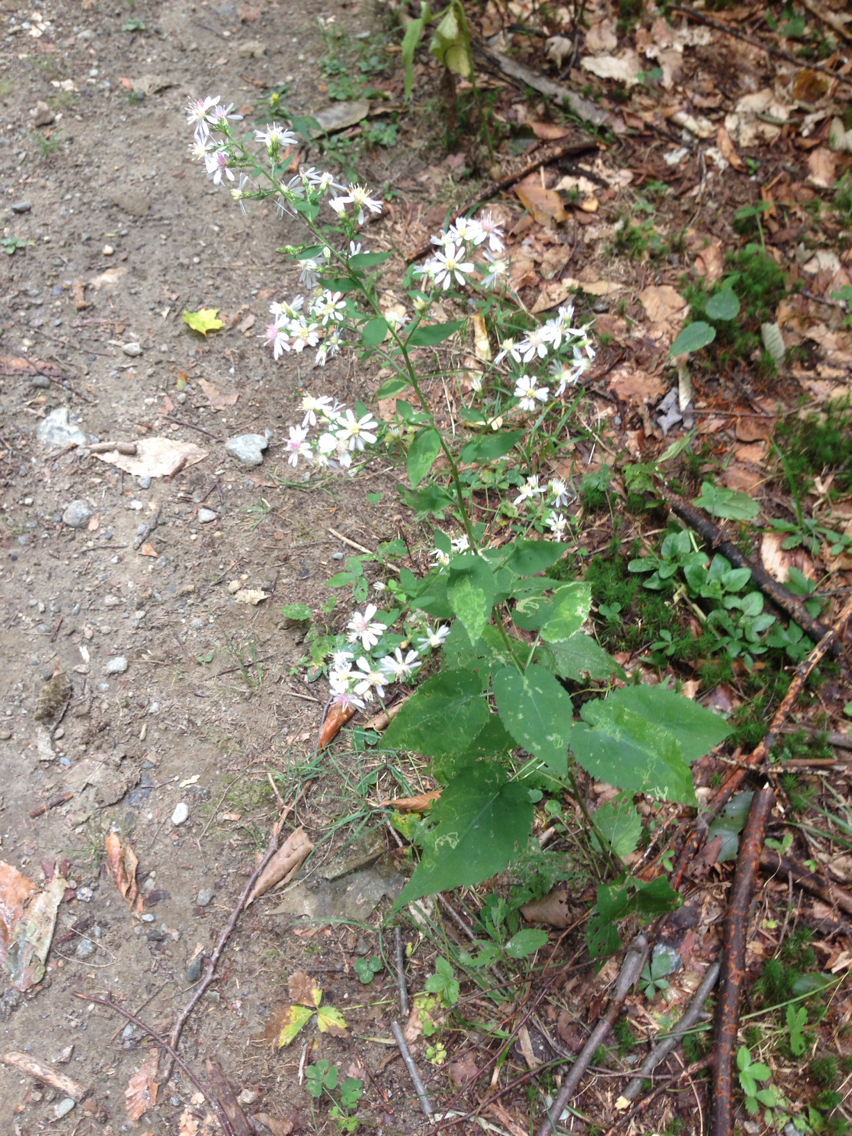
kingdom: Plantae
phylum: Tracheophyta
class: Magnoliopsida
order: Asterales
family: Asteraceae
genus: Symphyotrichum
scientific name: Symphyotrichum cordifolium
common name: Beeweed
